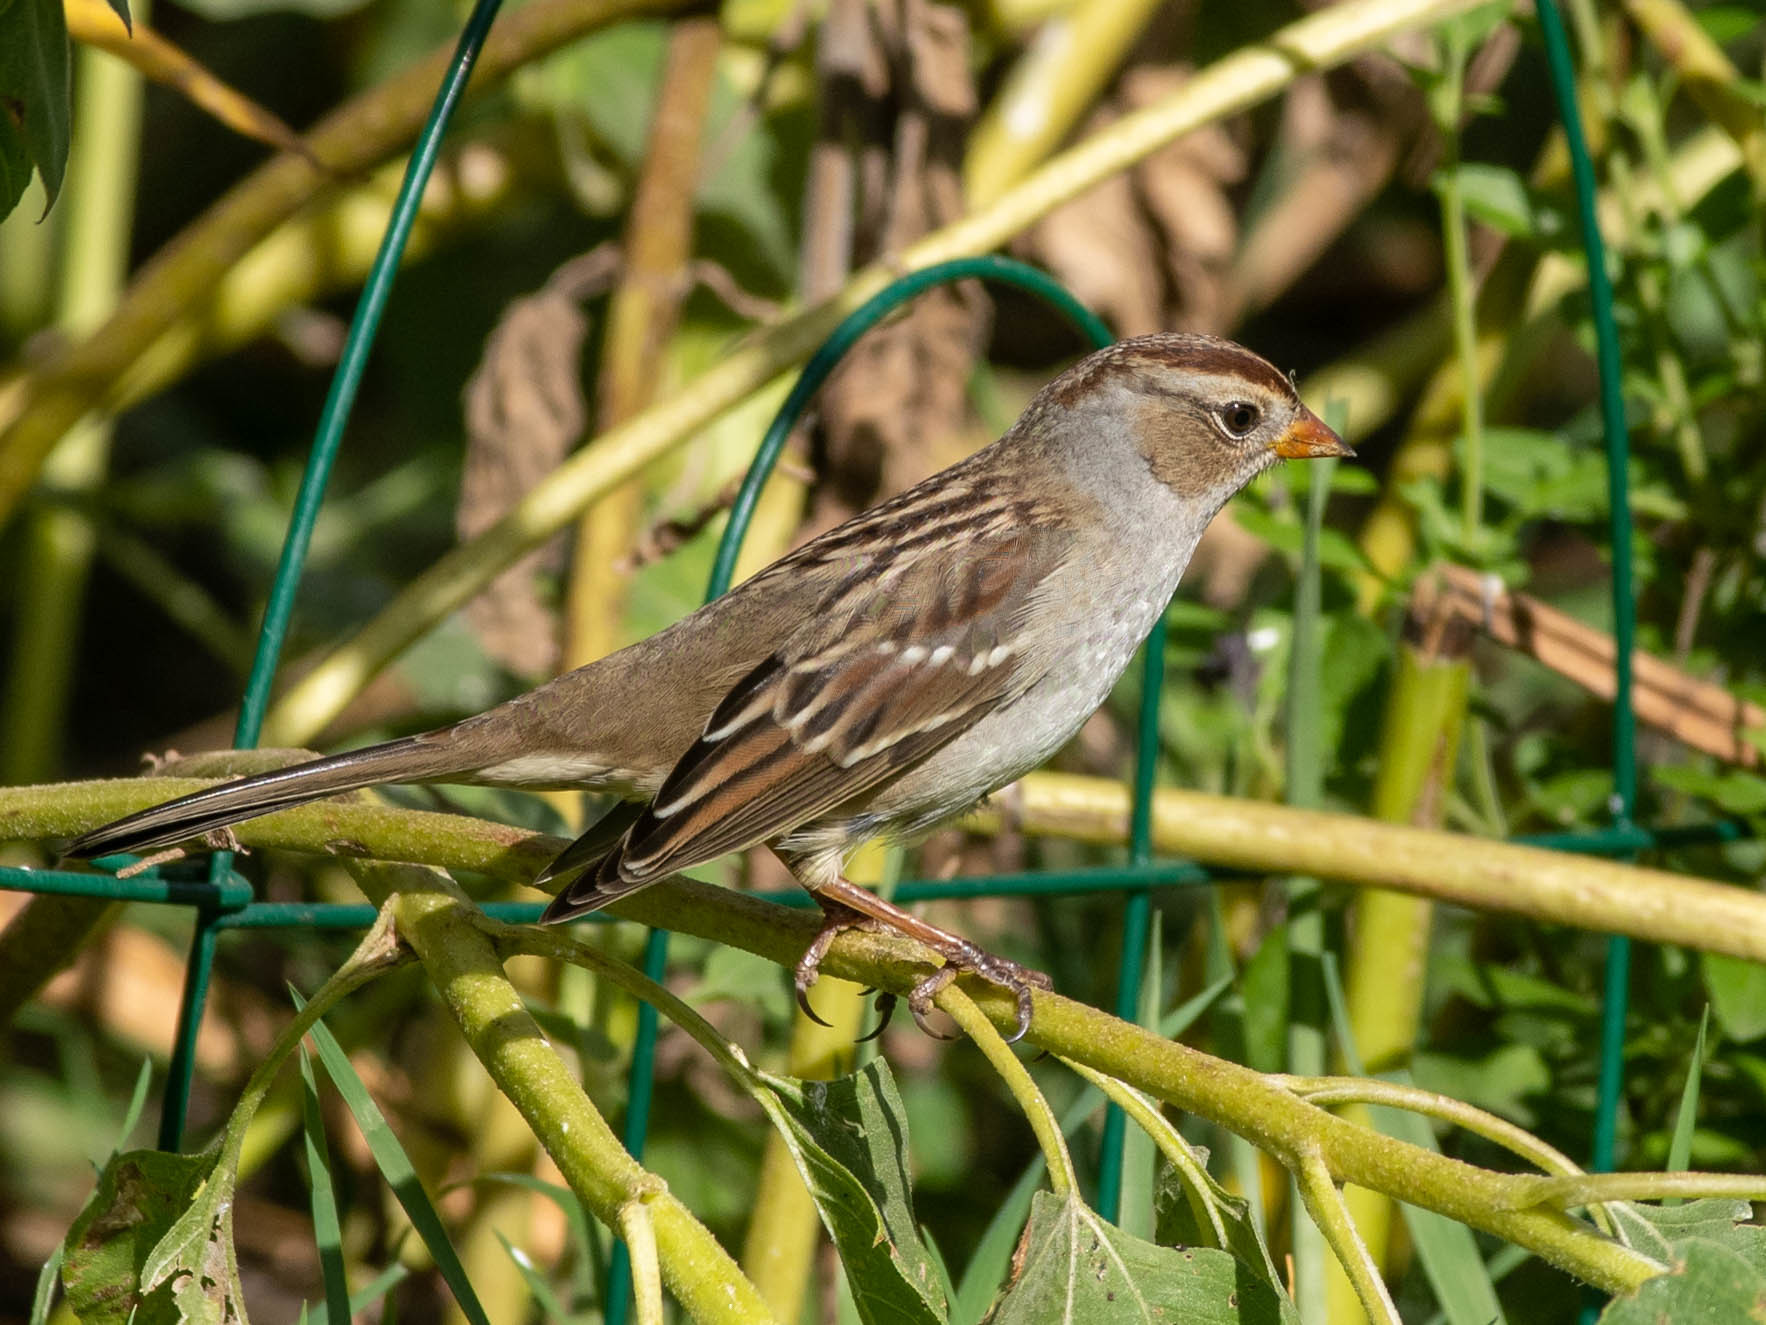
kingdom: Animalia
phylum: Chordata
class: Aves
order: Passeriformes
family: Passerellidae
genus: Zonotrichia
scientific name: Zonotrichia leucophrys
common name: White-crowned sparrow
